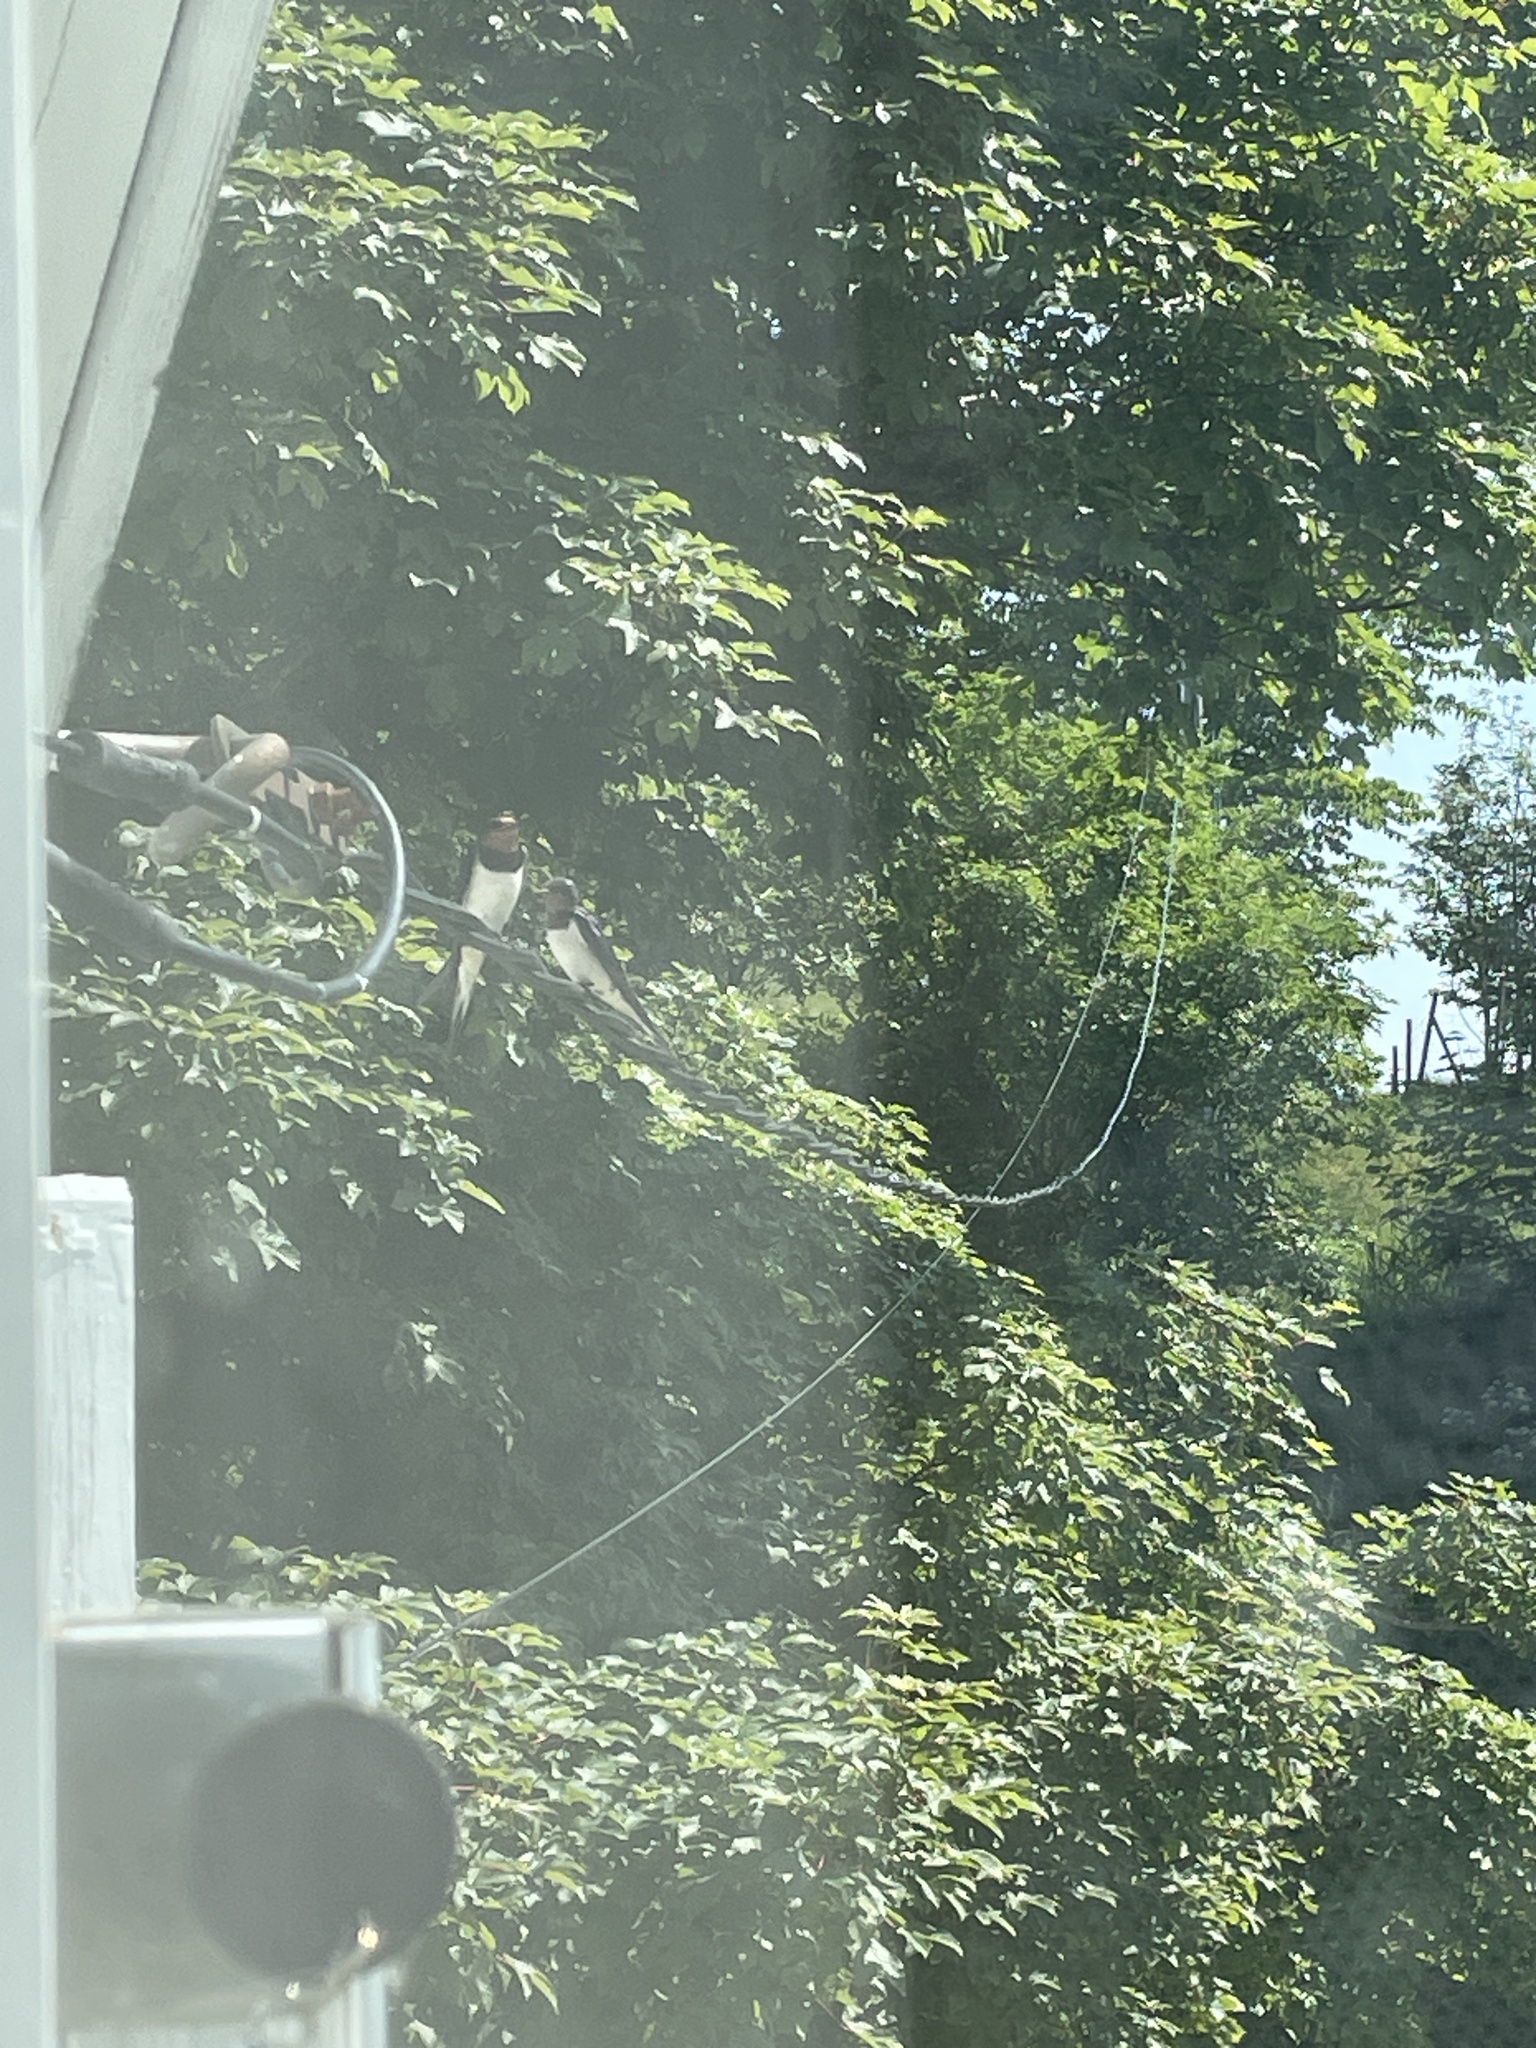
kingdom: Animalia
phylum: Chordata
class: Aves
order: Passeriformes
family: Hirundinidae
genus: Hirundo
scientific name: Hirundo rustica
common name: Barn swallow
